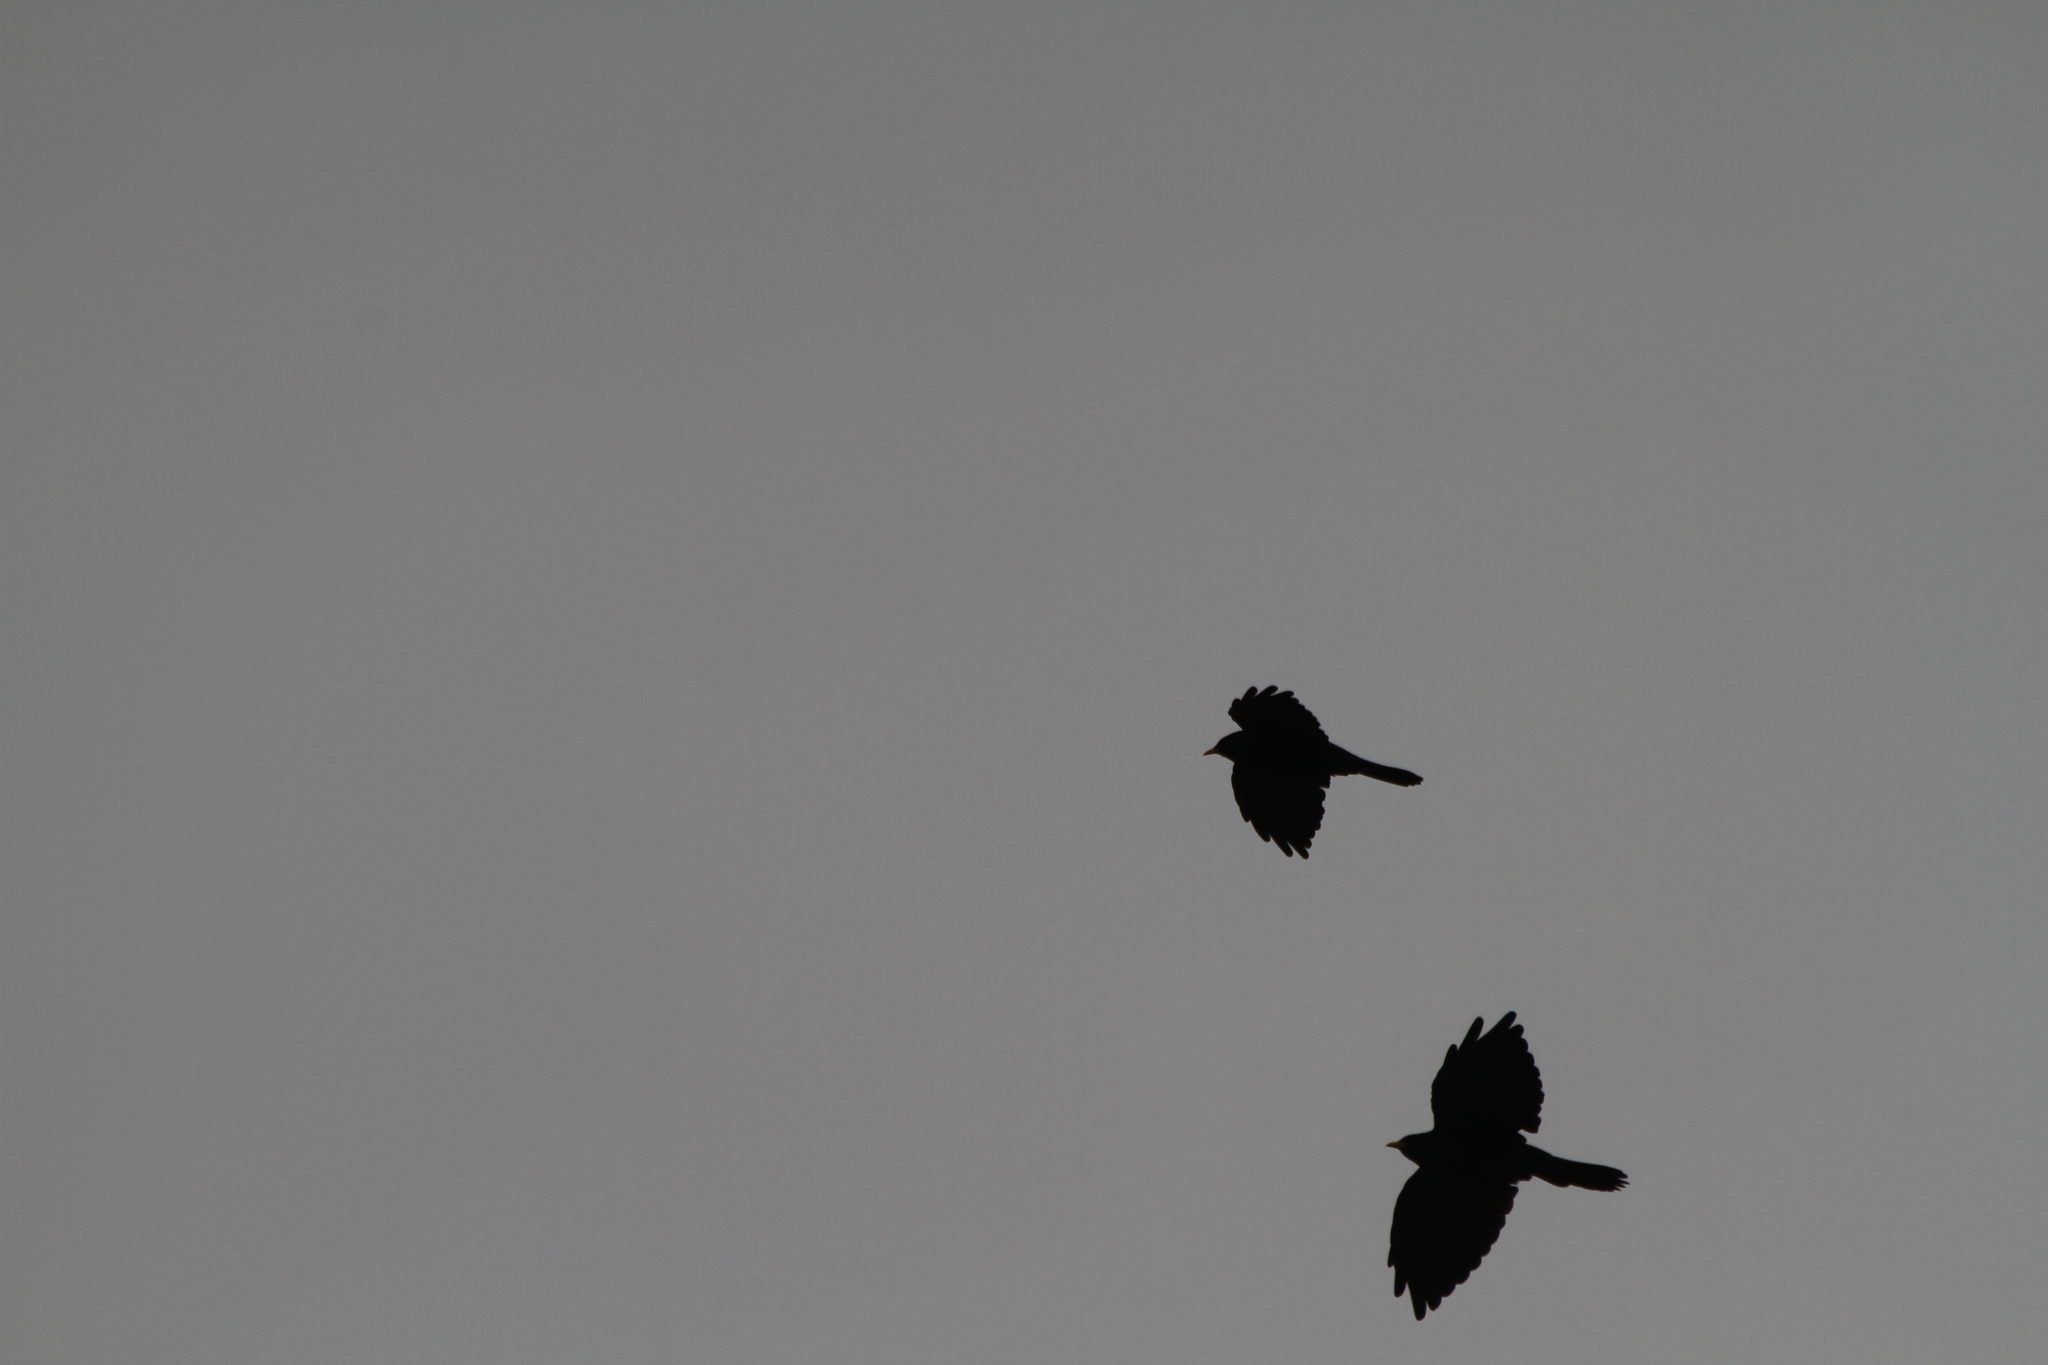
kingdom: Animalia
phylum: Chordata
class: Aves
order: Passeriformes
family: Corvidae
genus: Pyrrhocorax
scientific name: Pyrrhocorax graculus
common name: Alpine chough
